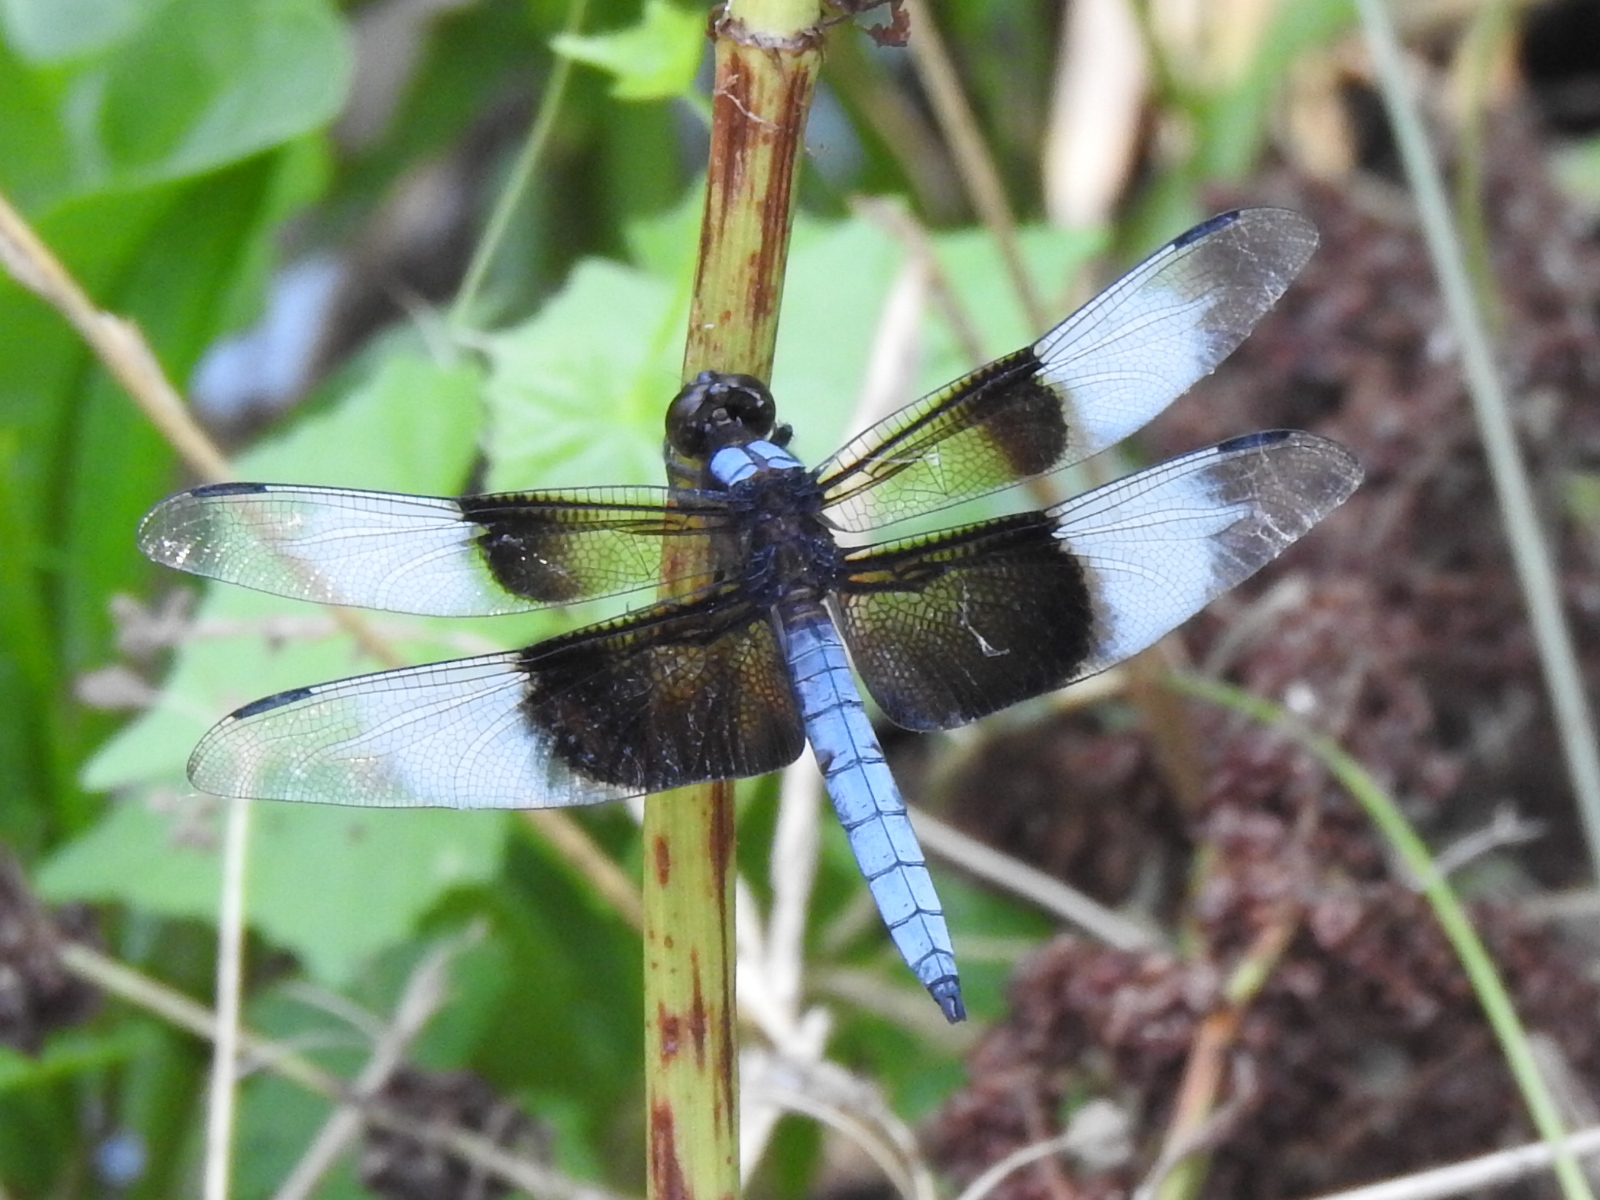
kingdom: Animalia
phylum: Arthropoda
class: Insecta
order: Odonata
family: Libellulidae
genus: Libellula
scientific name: Libellula luctuosa
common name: Widow skimmer
